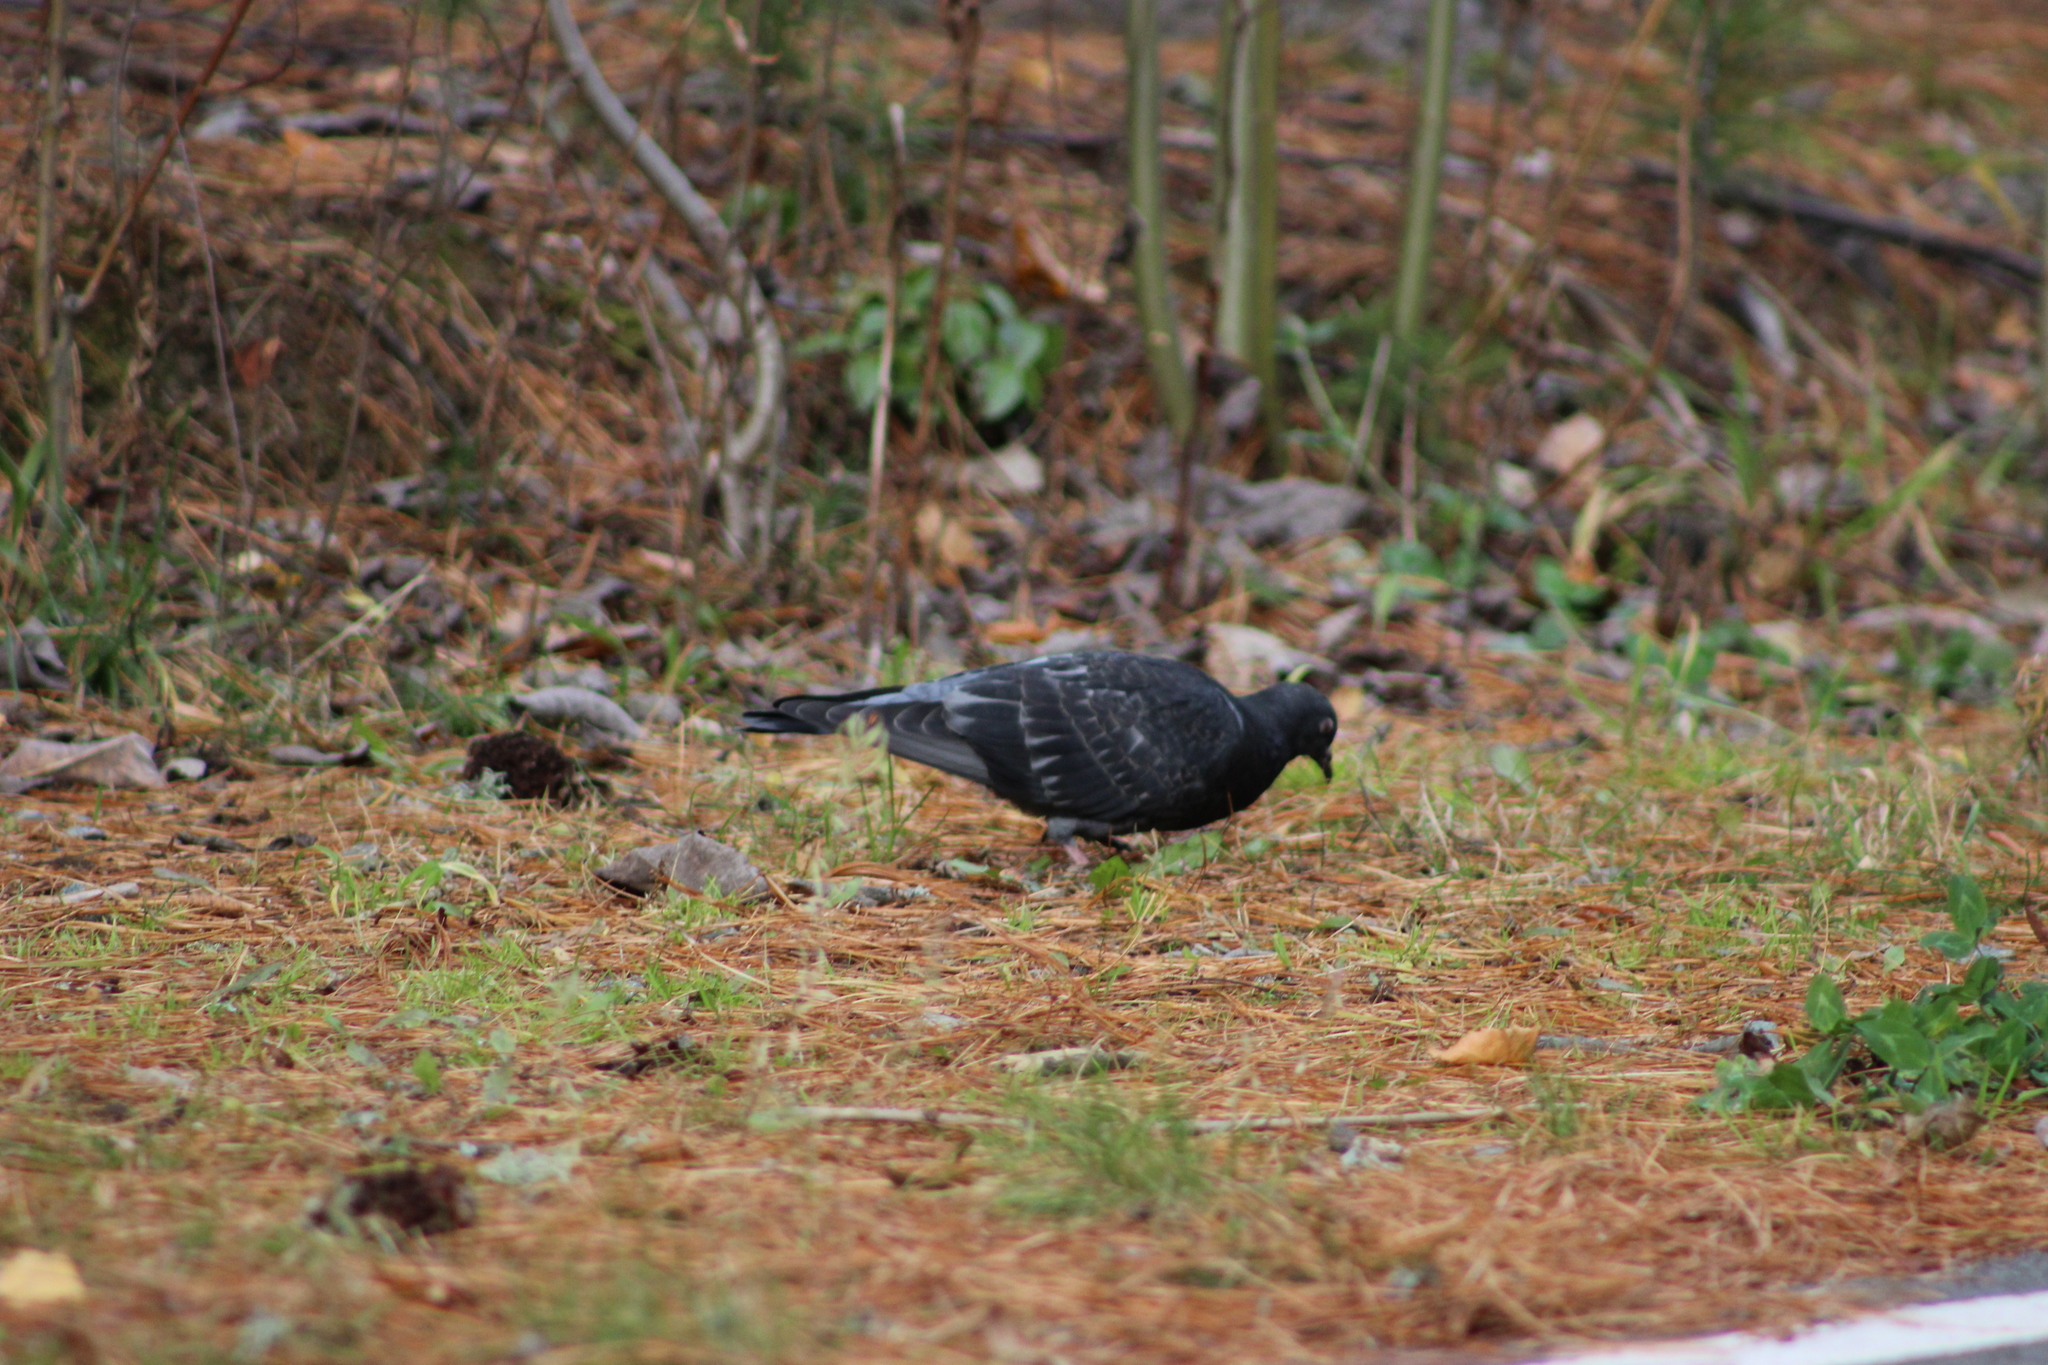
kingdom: Animalia
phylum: Chordata
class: Aves
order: Columbiformes
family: Columbidae
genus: Columba
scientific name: Columba livia
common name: Rock pigeon
